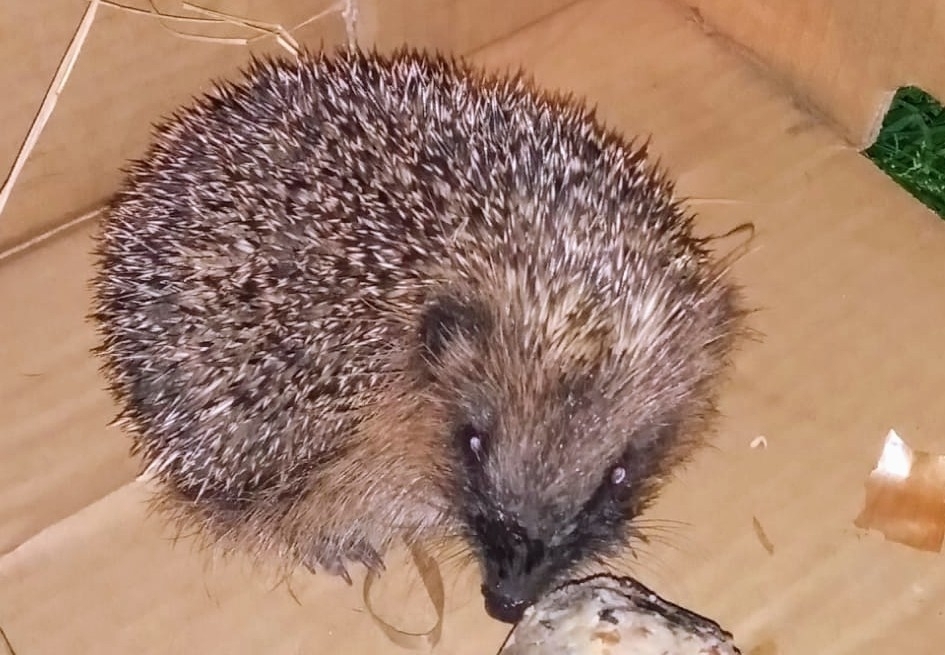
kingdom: Animalia
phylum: Chordata
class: Mammalia
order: Erinaceomorpha
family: Erinaceidae
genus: Erinaceus
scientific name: Erinaceus europaeus
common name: West european hedgehog
